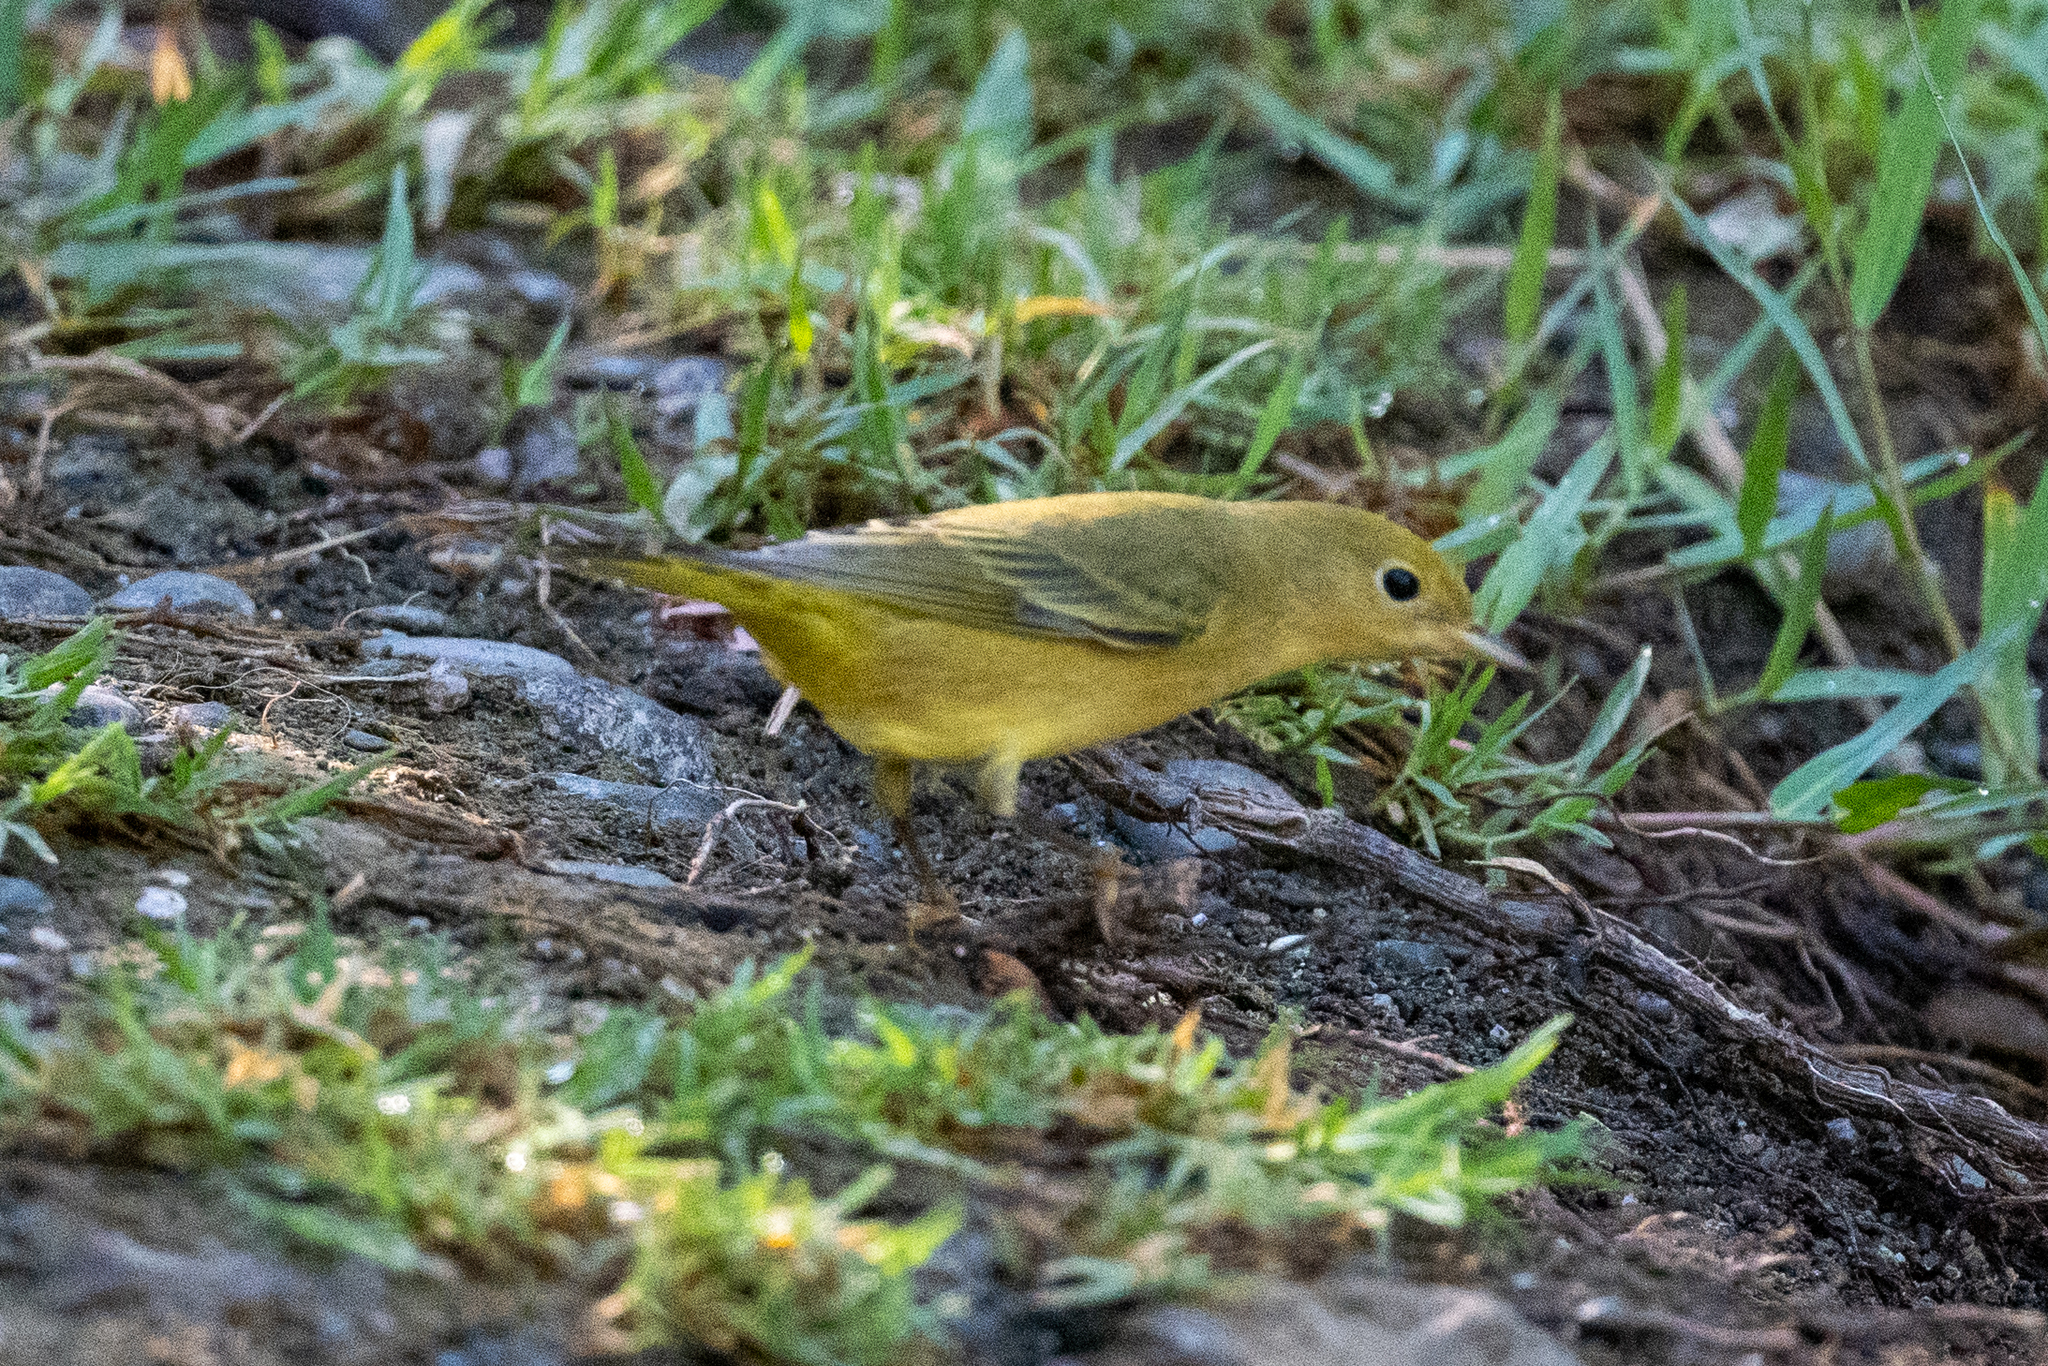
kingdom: Animalia
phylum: Chordata
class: Aves
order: Passeriformes
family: Parulidae
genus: Setophaga
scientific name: Setophaga petechia
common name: Yellow warbler
